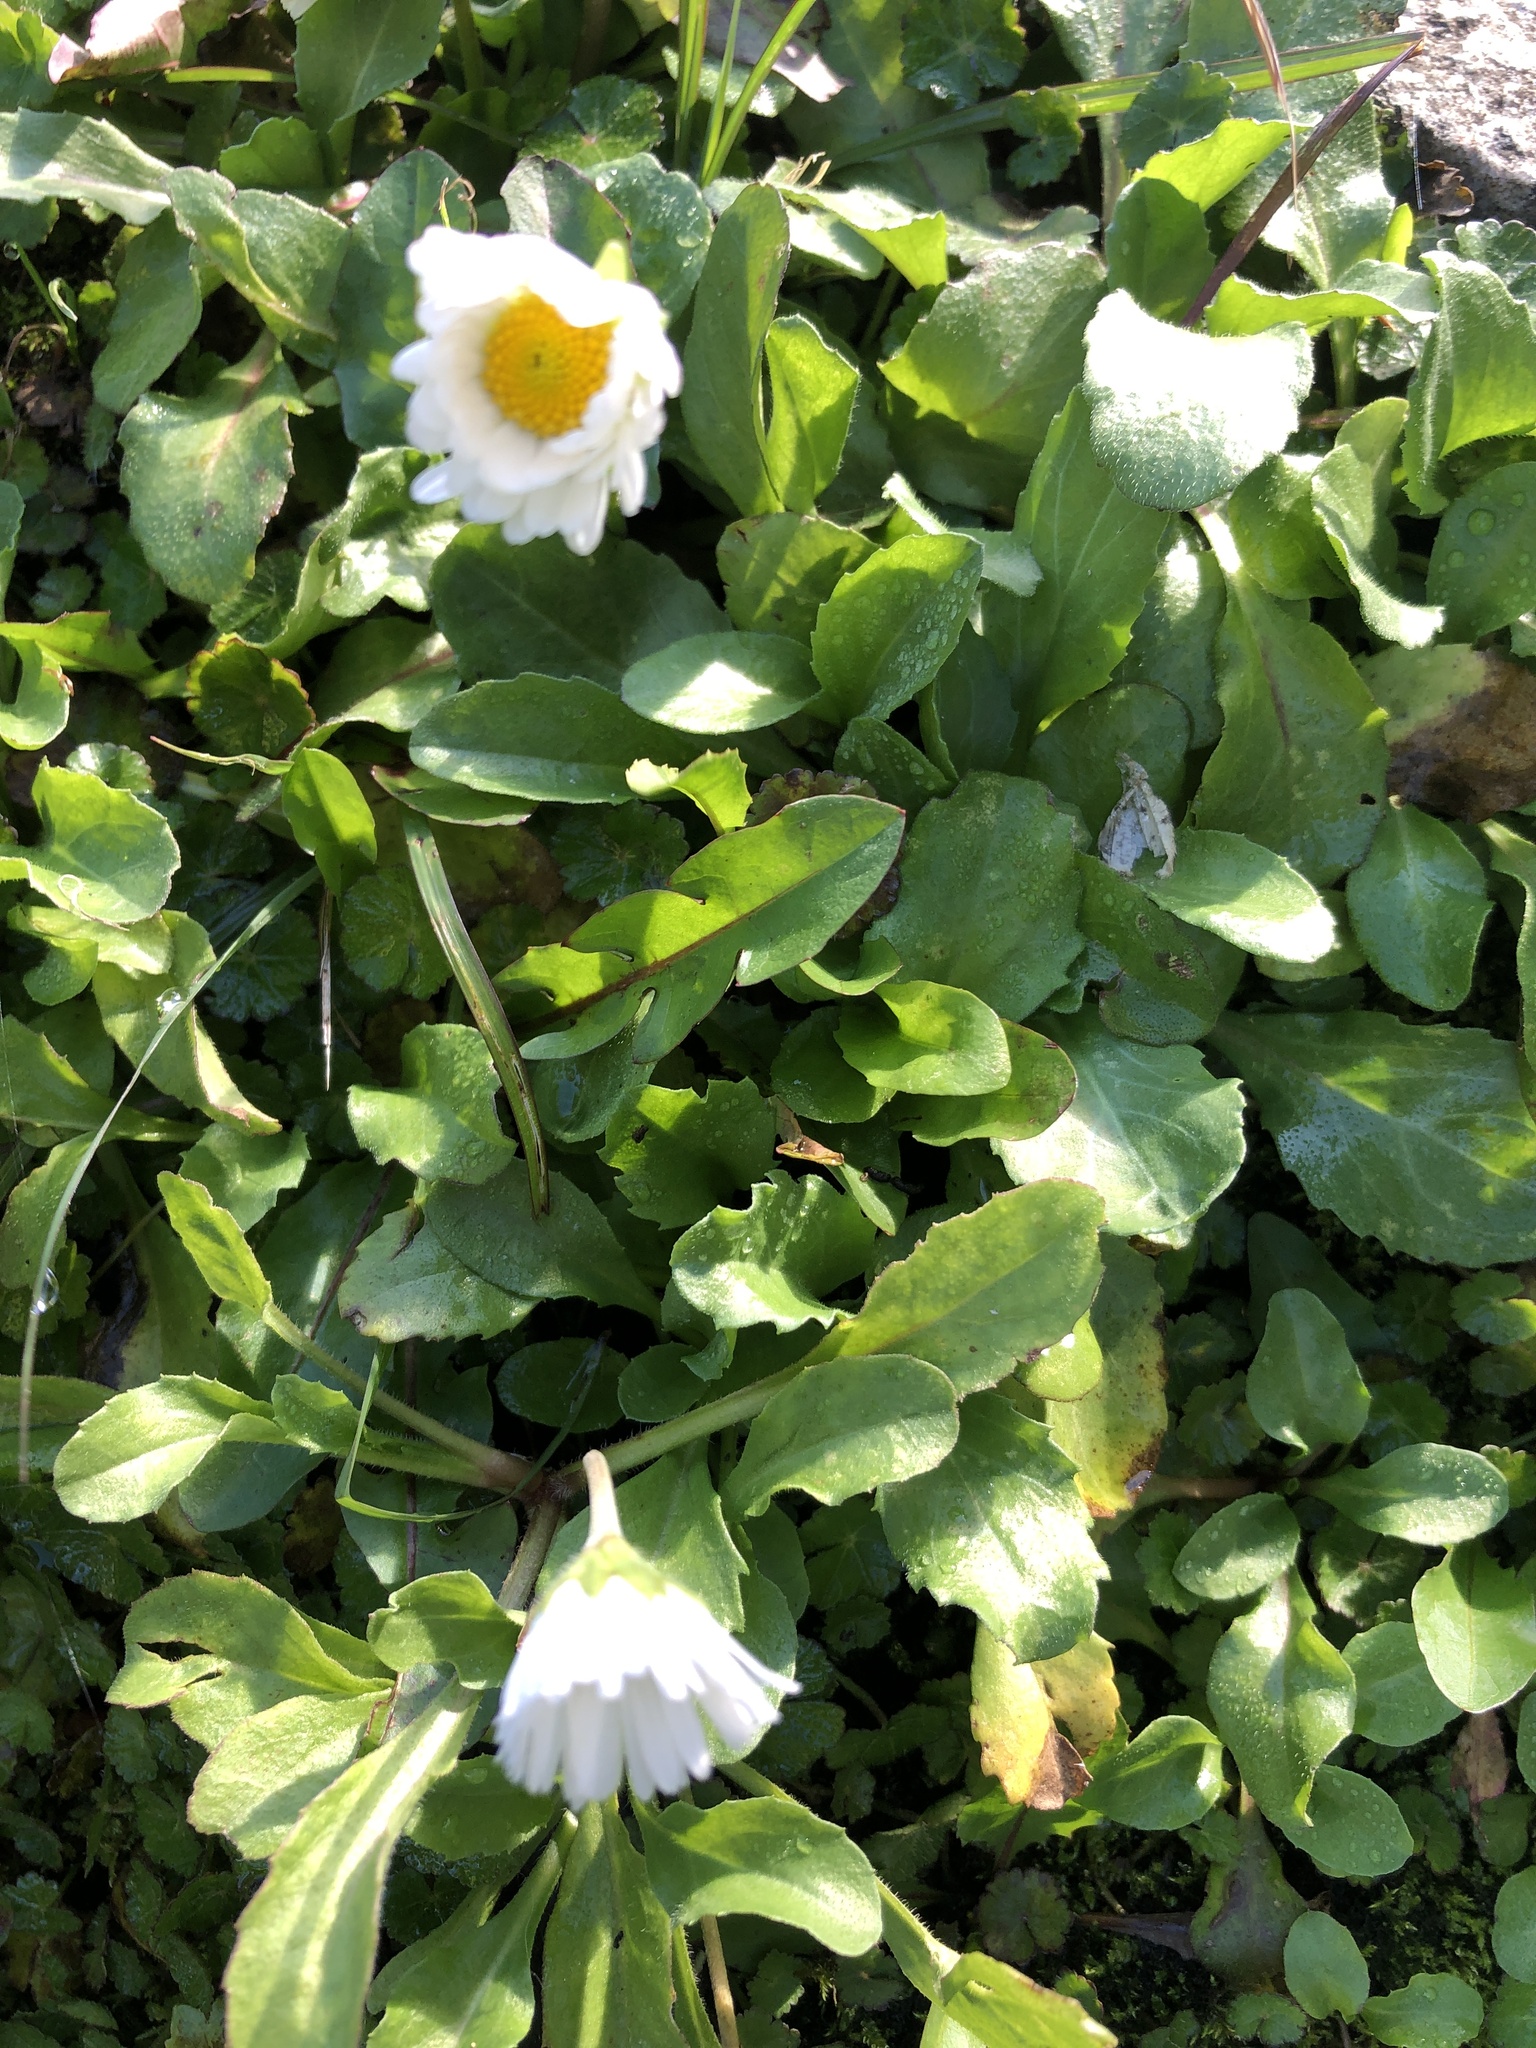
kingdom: Plantae
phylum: Tracheophyta
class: Magnoliopsida
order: Asterales
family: Asteraceae
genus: Bellis
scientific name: Bellis perennis
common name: Lawndaisy
